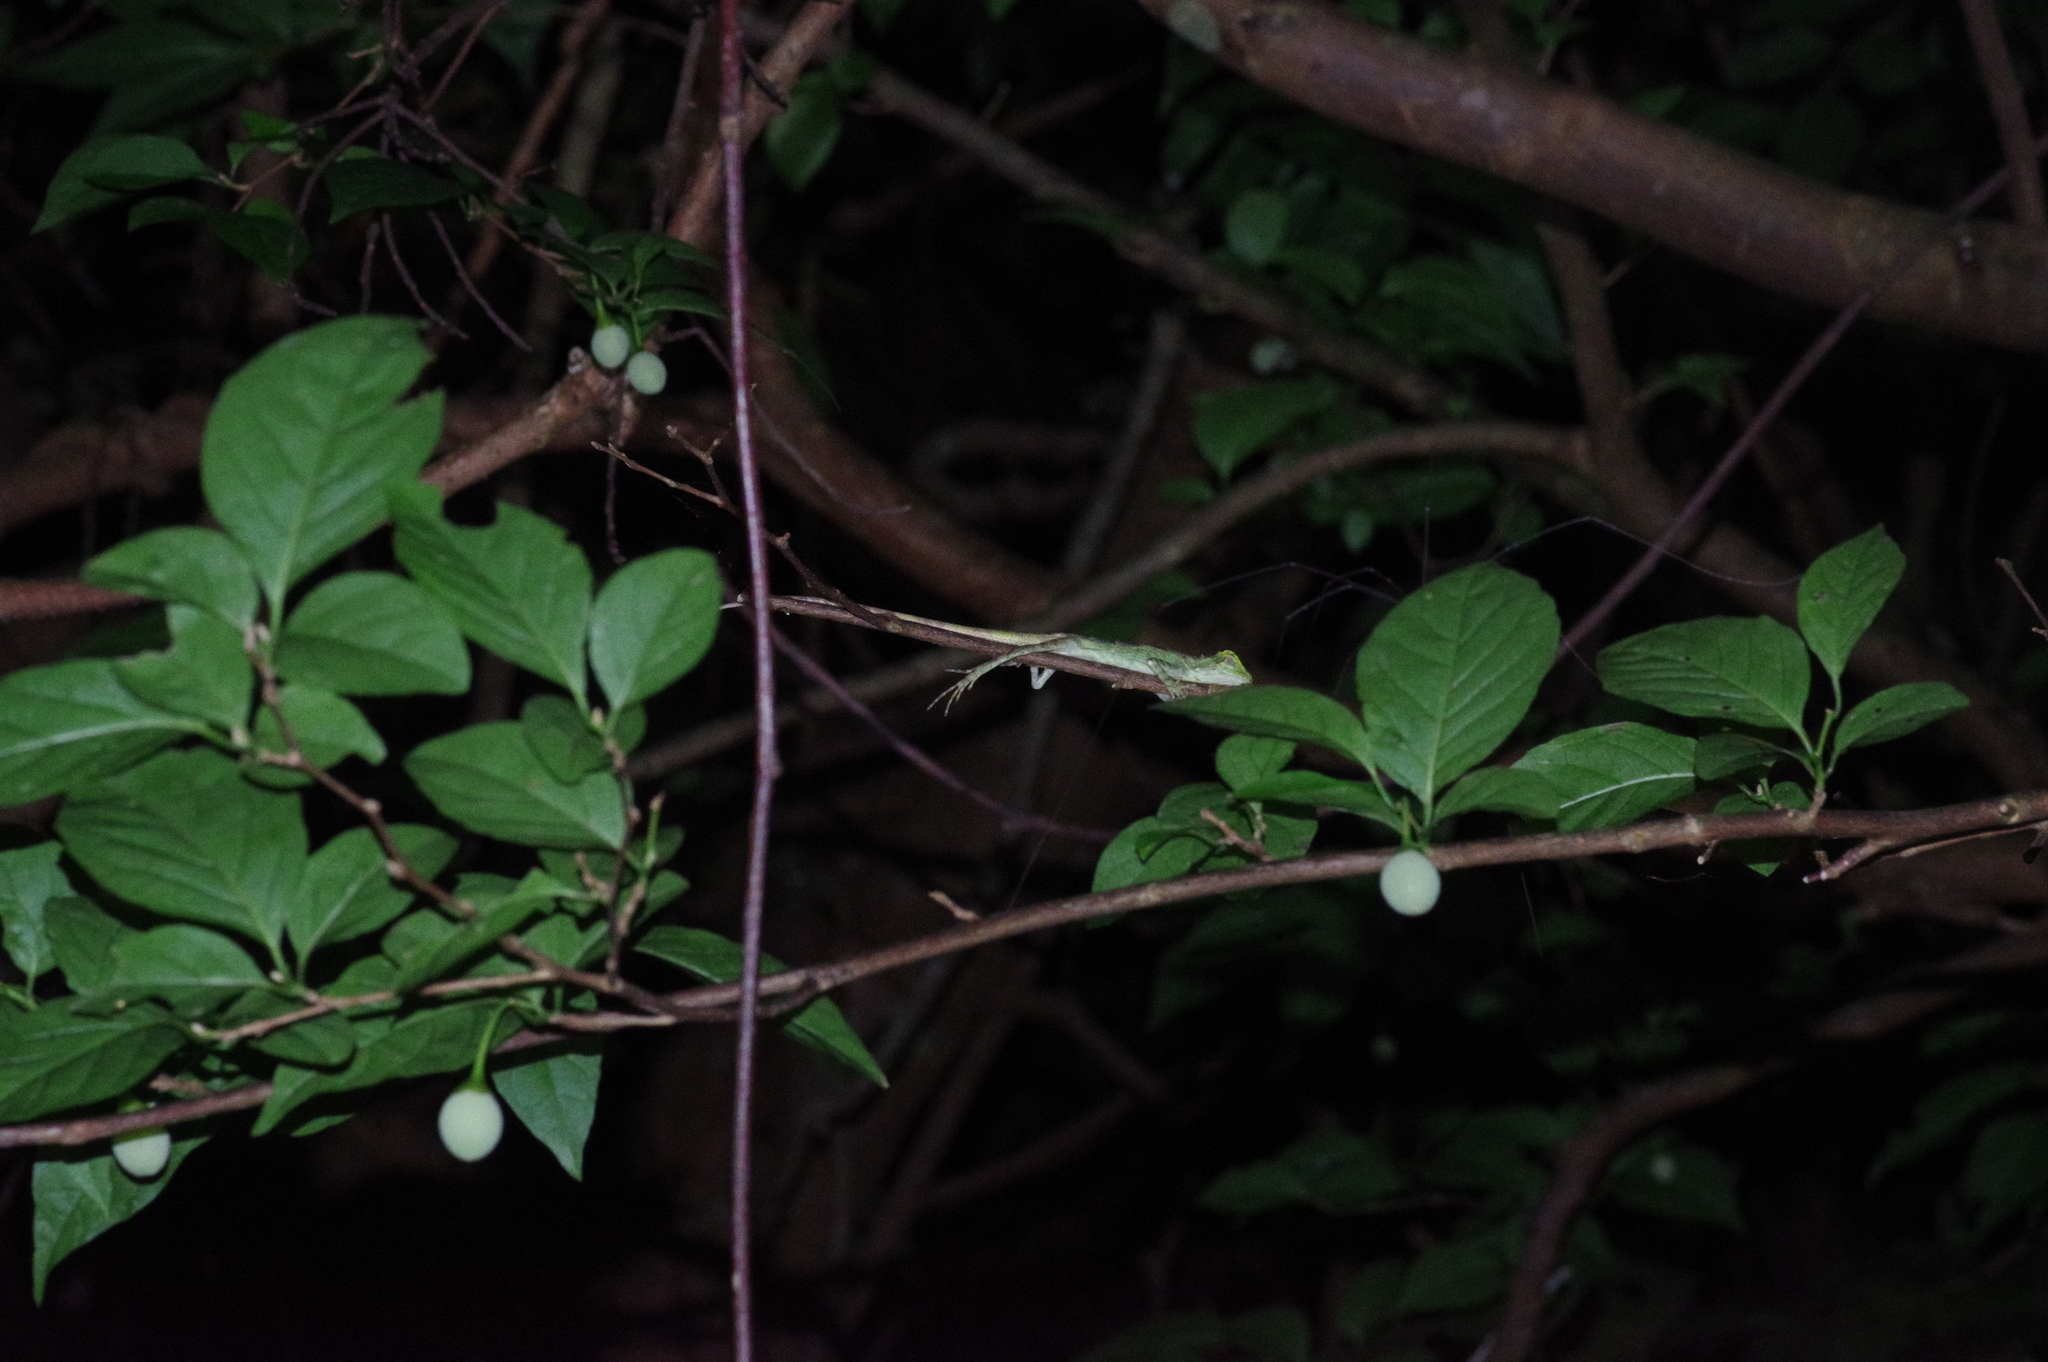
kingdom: Fungi
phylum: Basidiomycota
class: Agaricomycetes
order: Boletales
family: Diplocystidiaceae
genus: Diploderma
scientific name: Diploderma polygonatum
